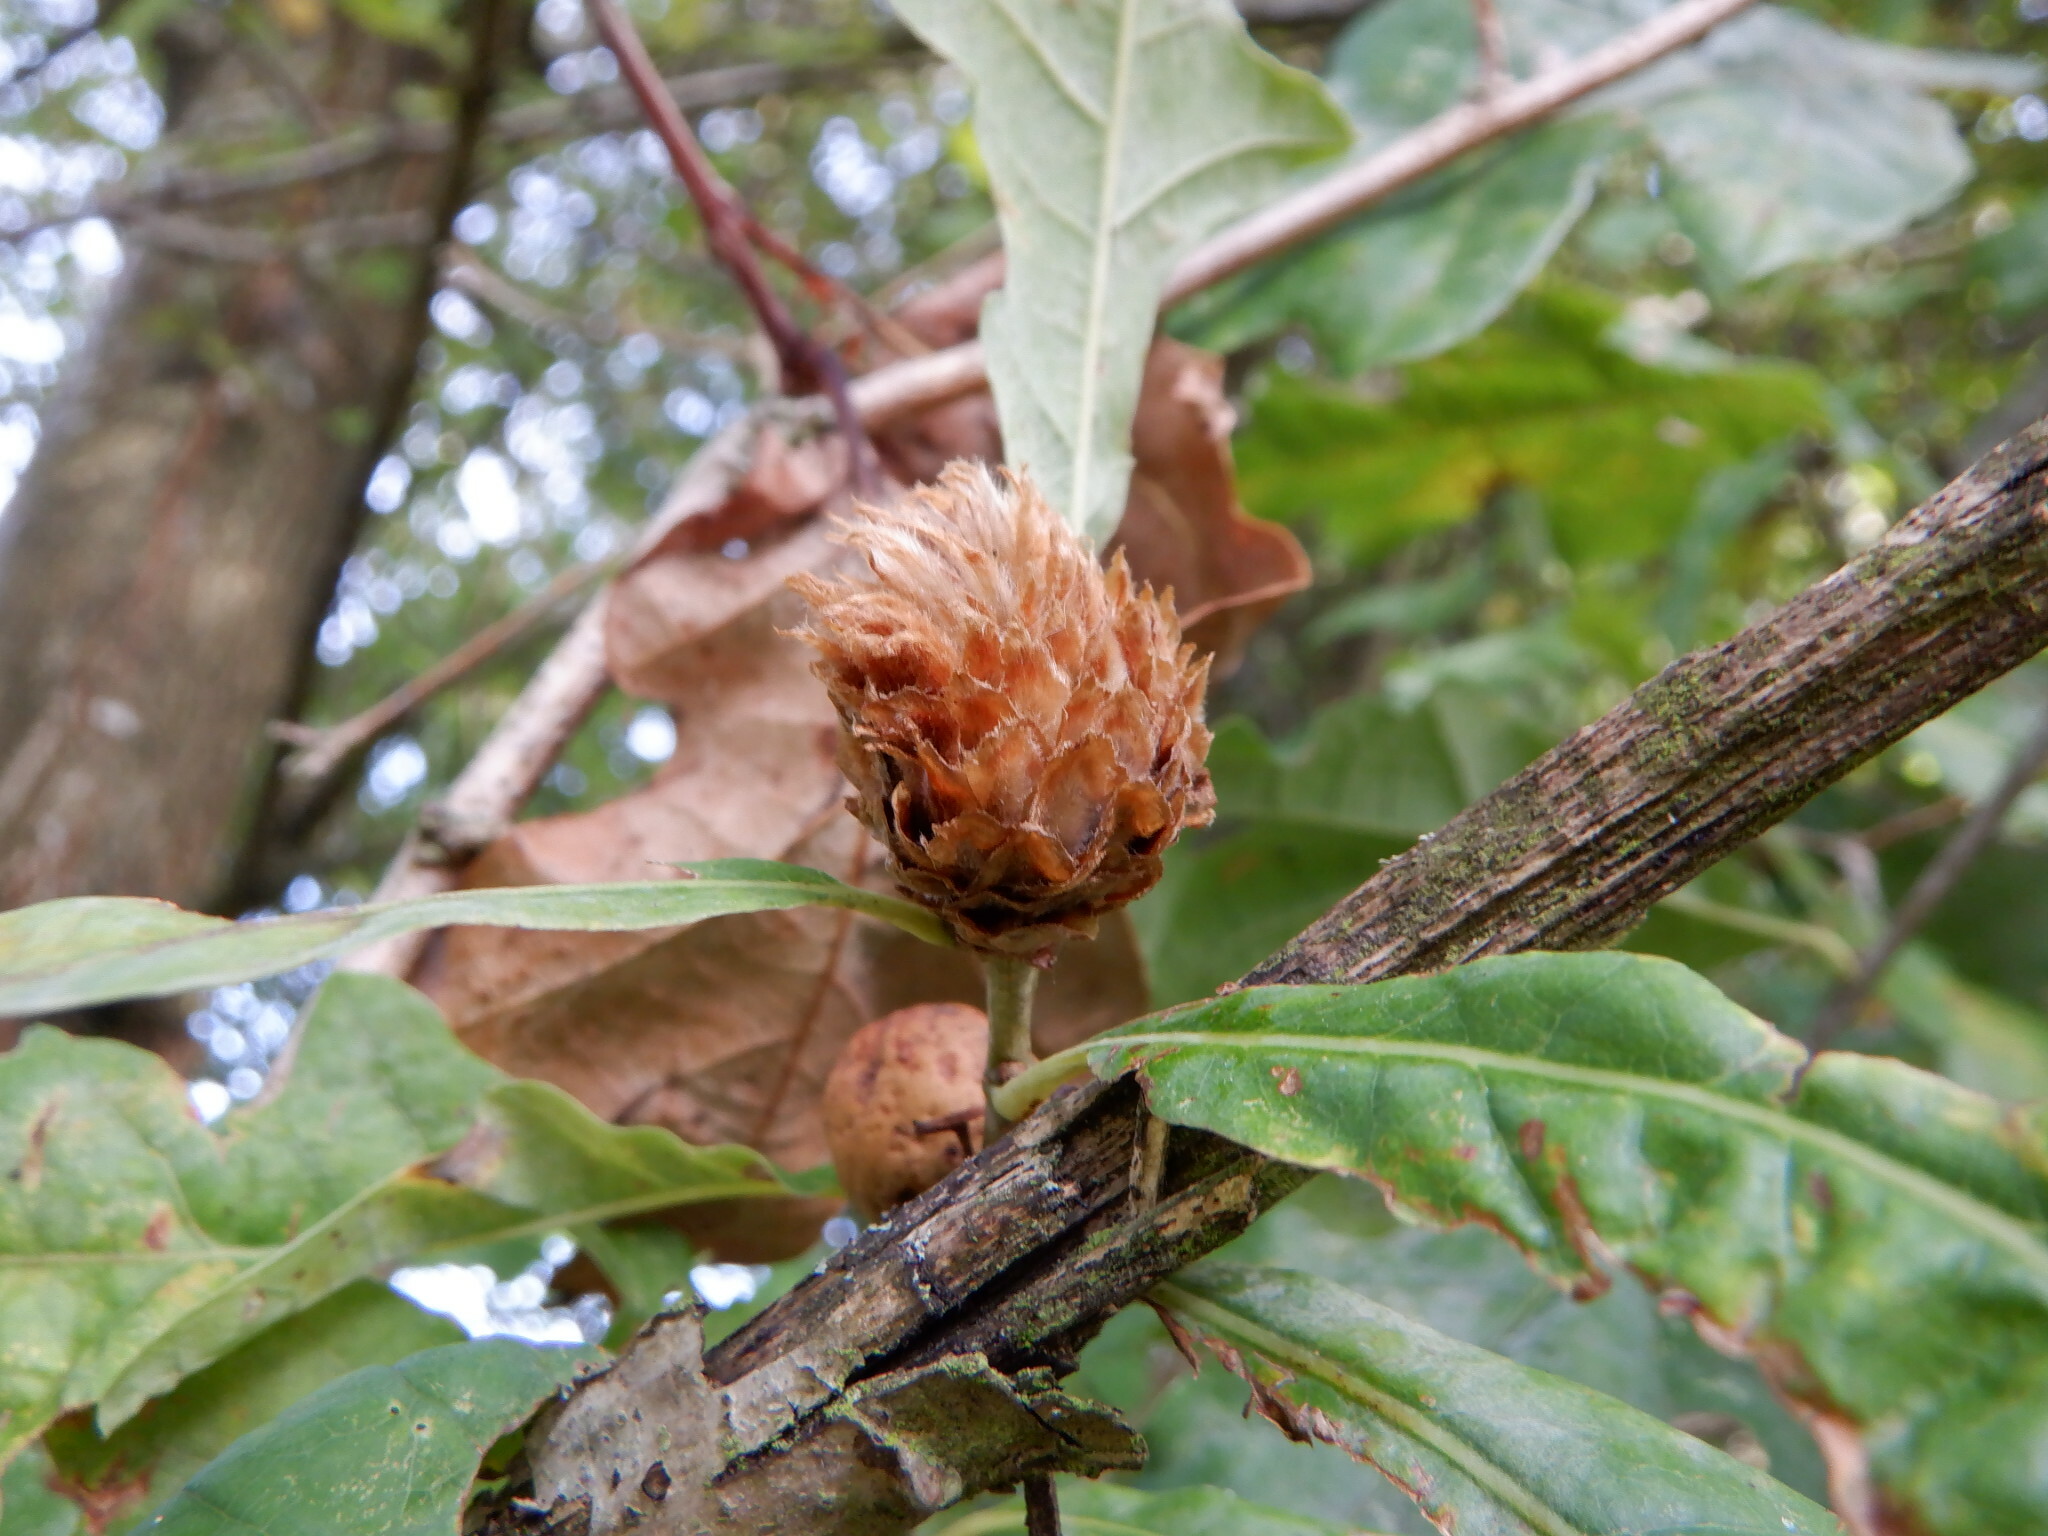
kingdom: Animalia
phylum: Arthropoda
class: Insecta
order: Hymenoptera
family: Cynipidae
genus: Andricus
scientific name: Andricus foecundatrix
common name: Artichoke gall
